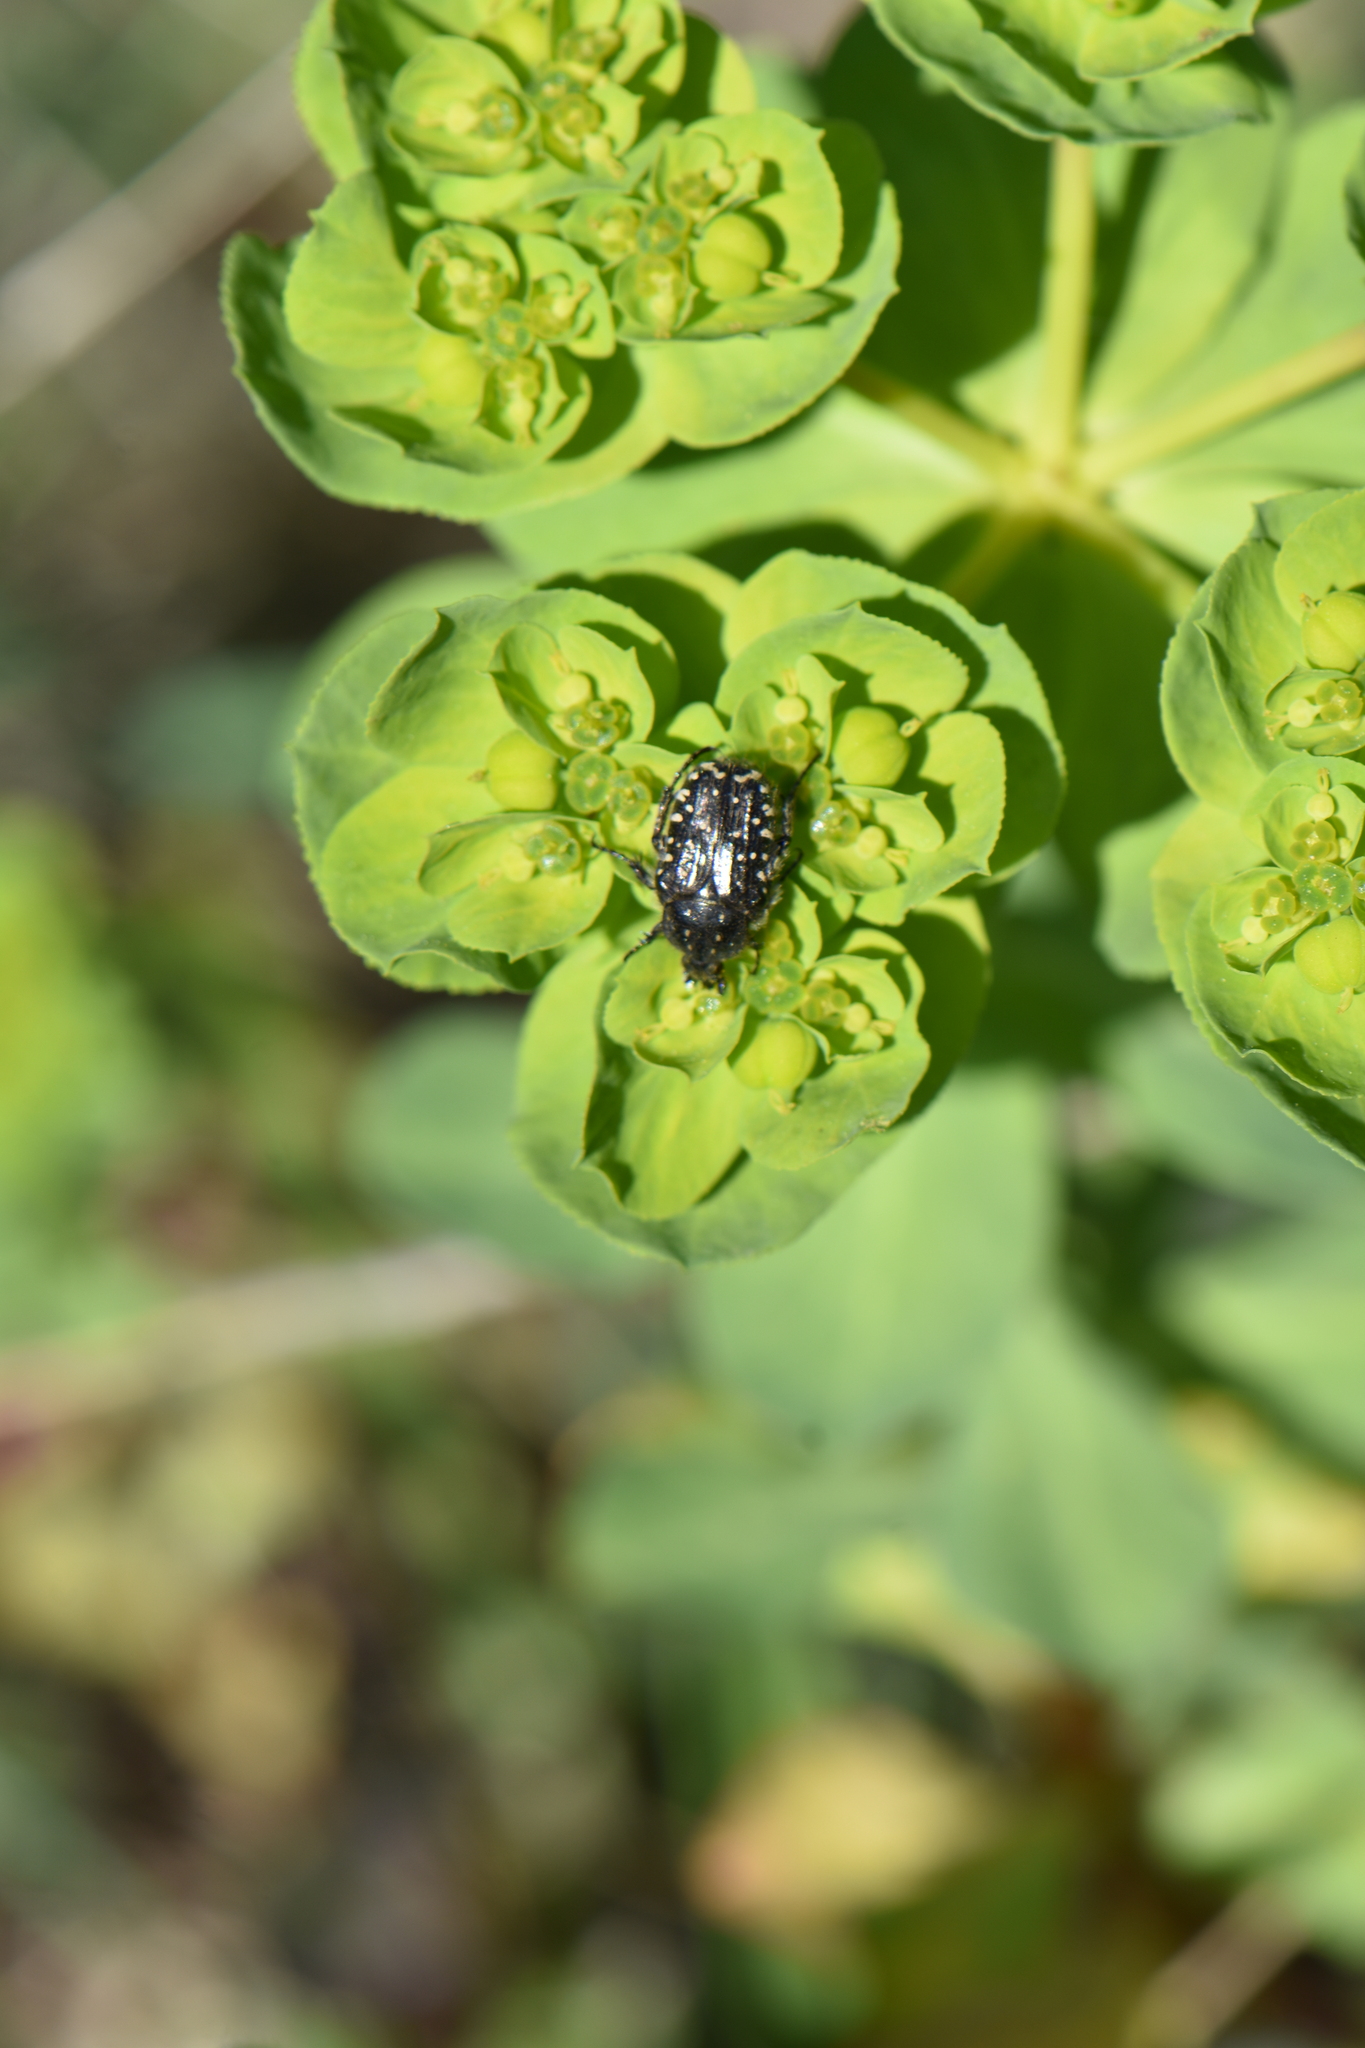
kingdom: Animalia
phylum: Arthropoda
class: Insecta
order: Coleoptera
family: Scarabaeidae
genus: Oxythyrea
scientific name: Oxythyrea funesta
